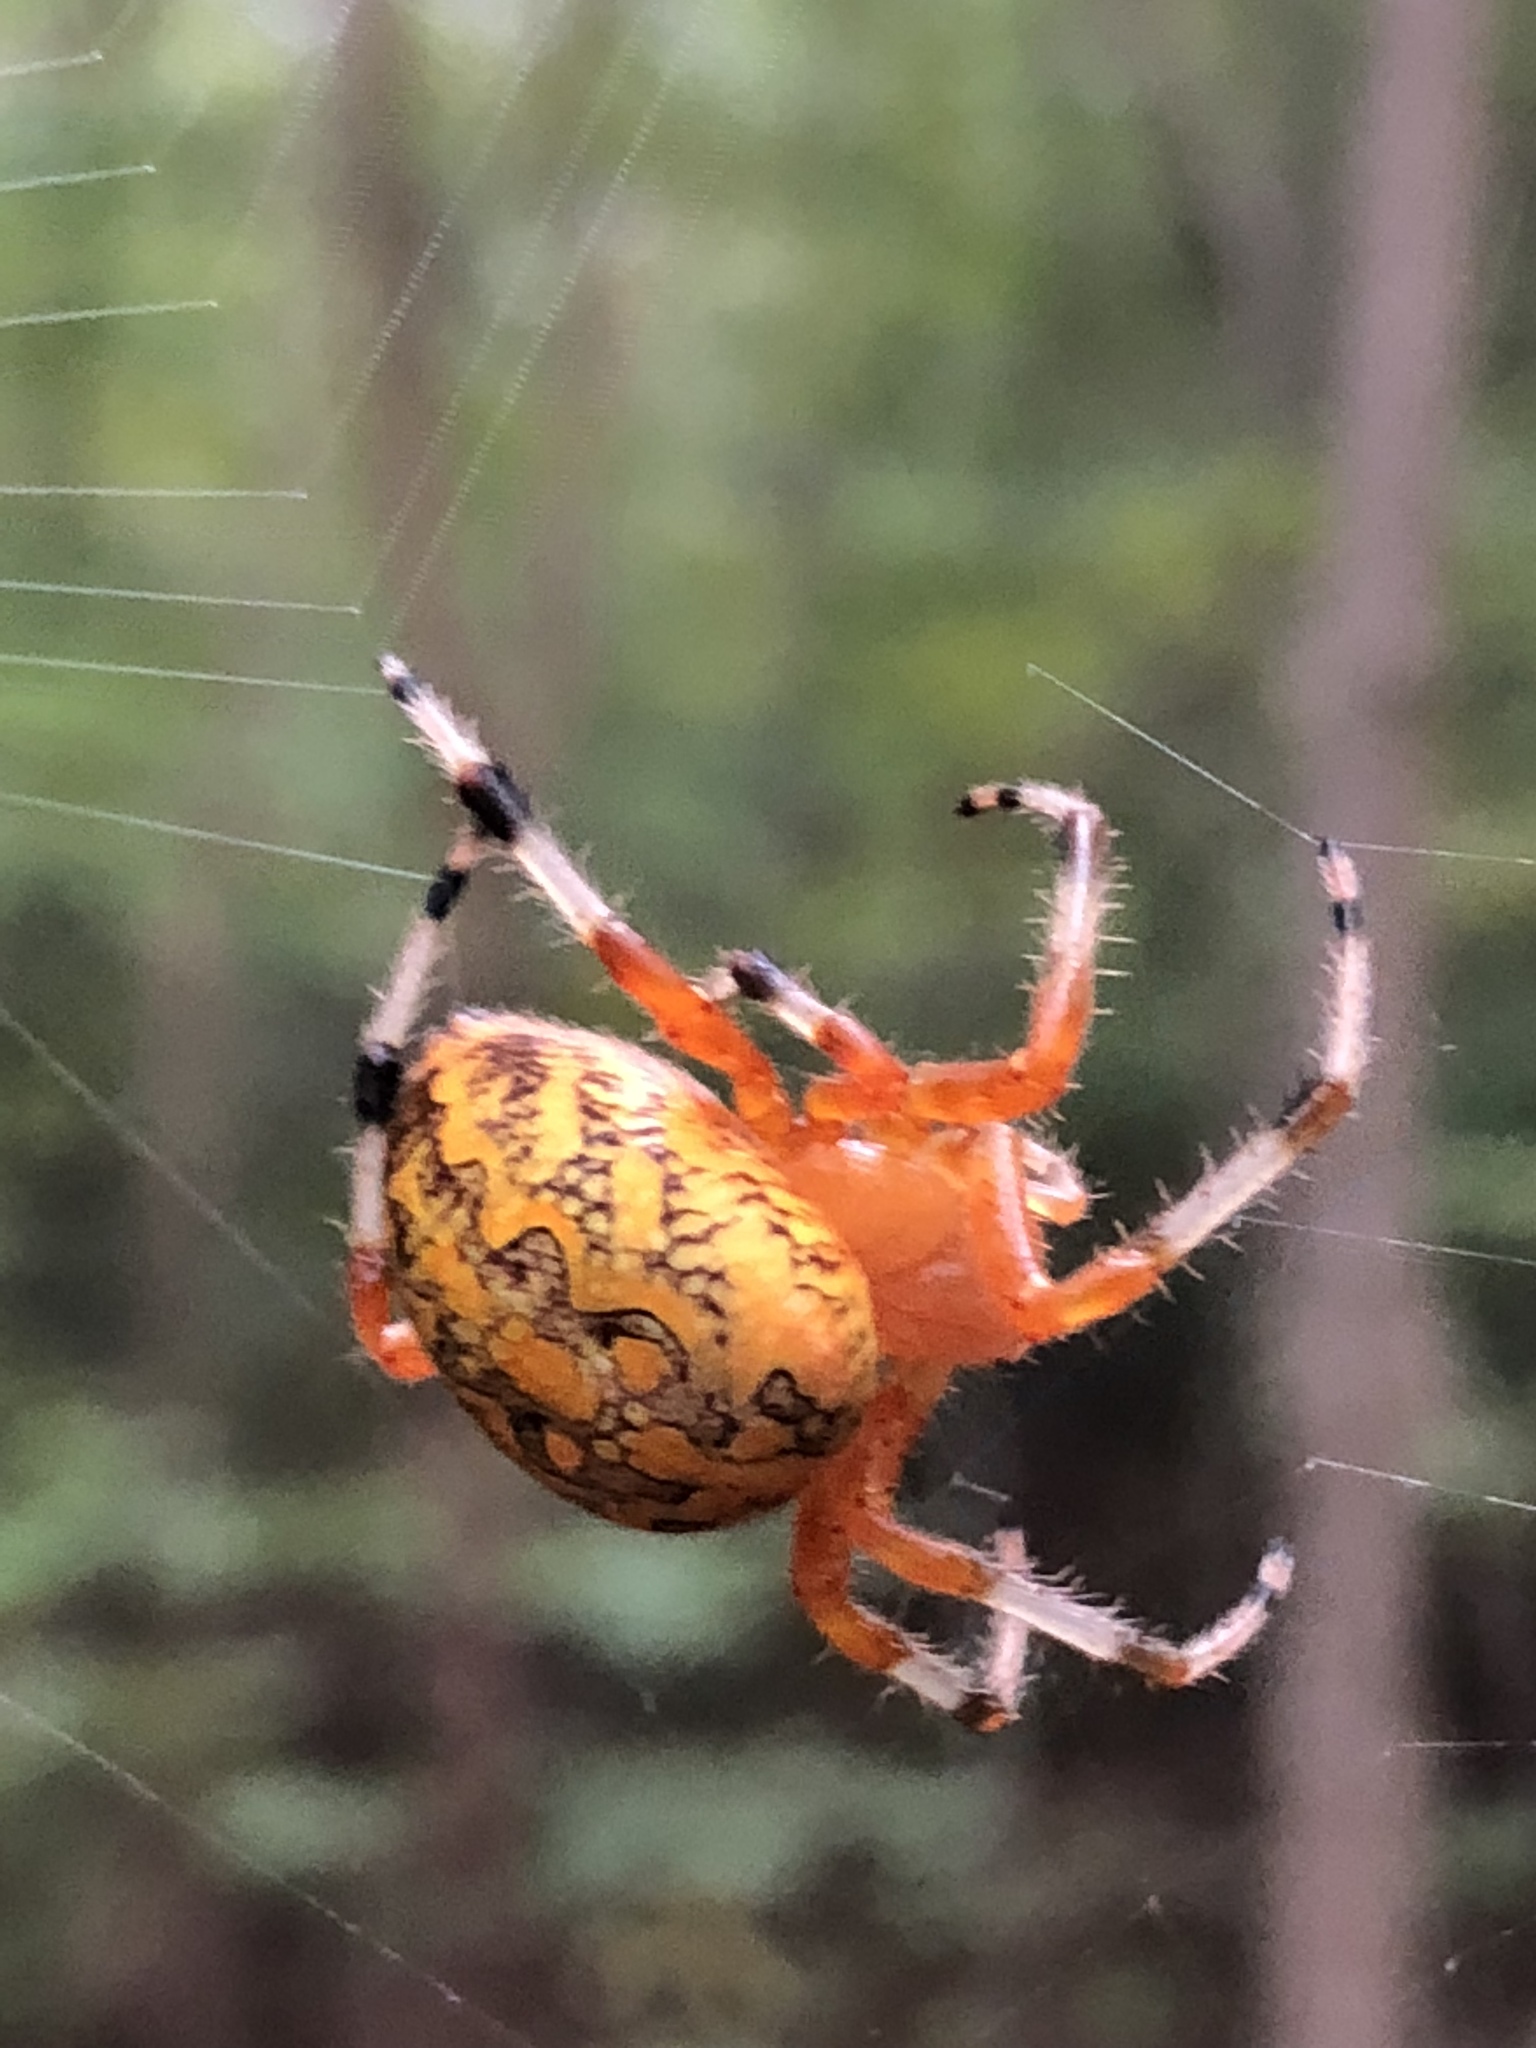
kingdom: Animalia
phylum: Arthropoda
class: Arachnida
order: Araneae
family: Araneidae
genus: Araneus
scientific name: Araneus marmoreus
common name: Marbled orbweaver
